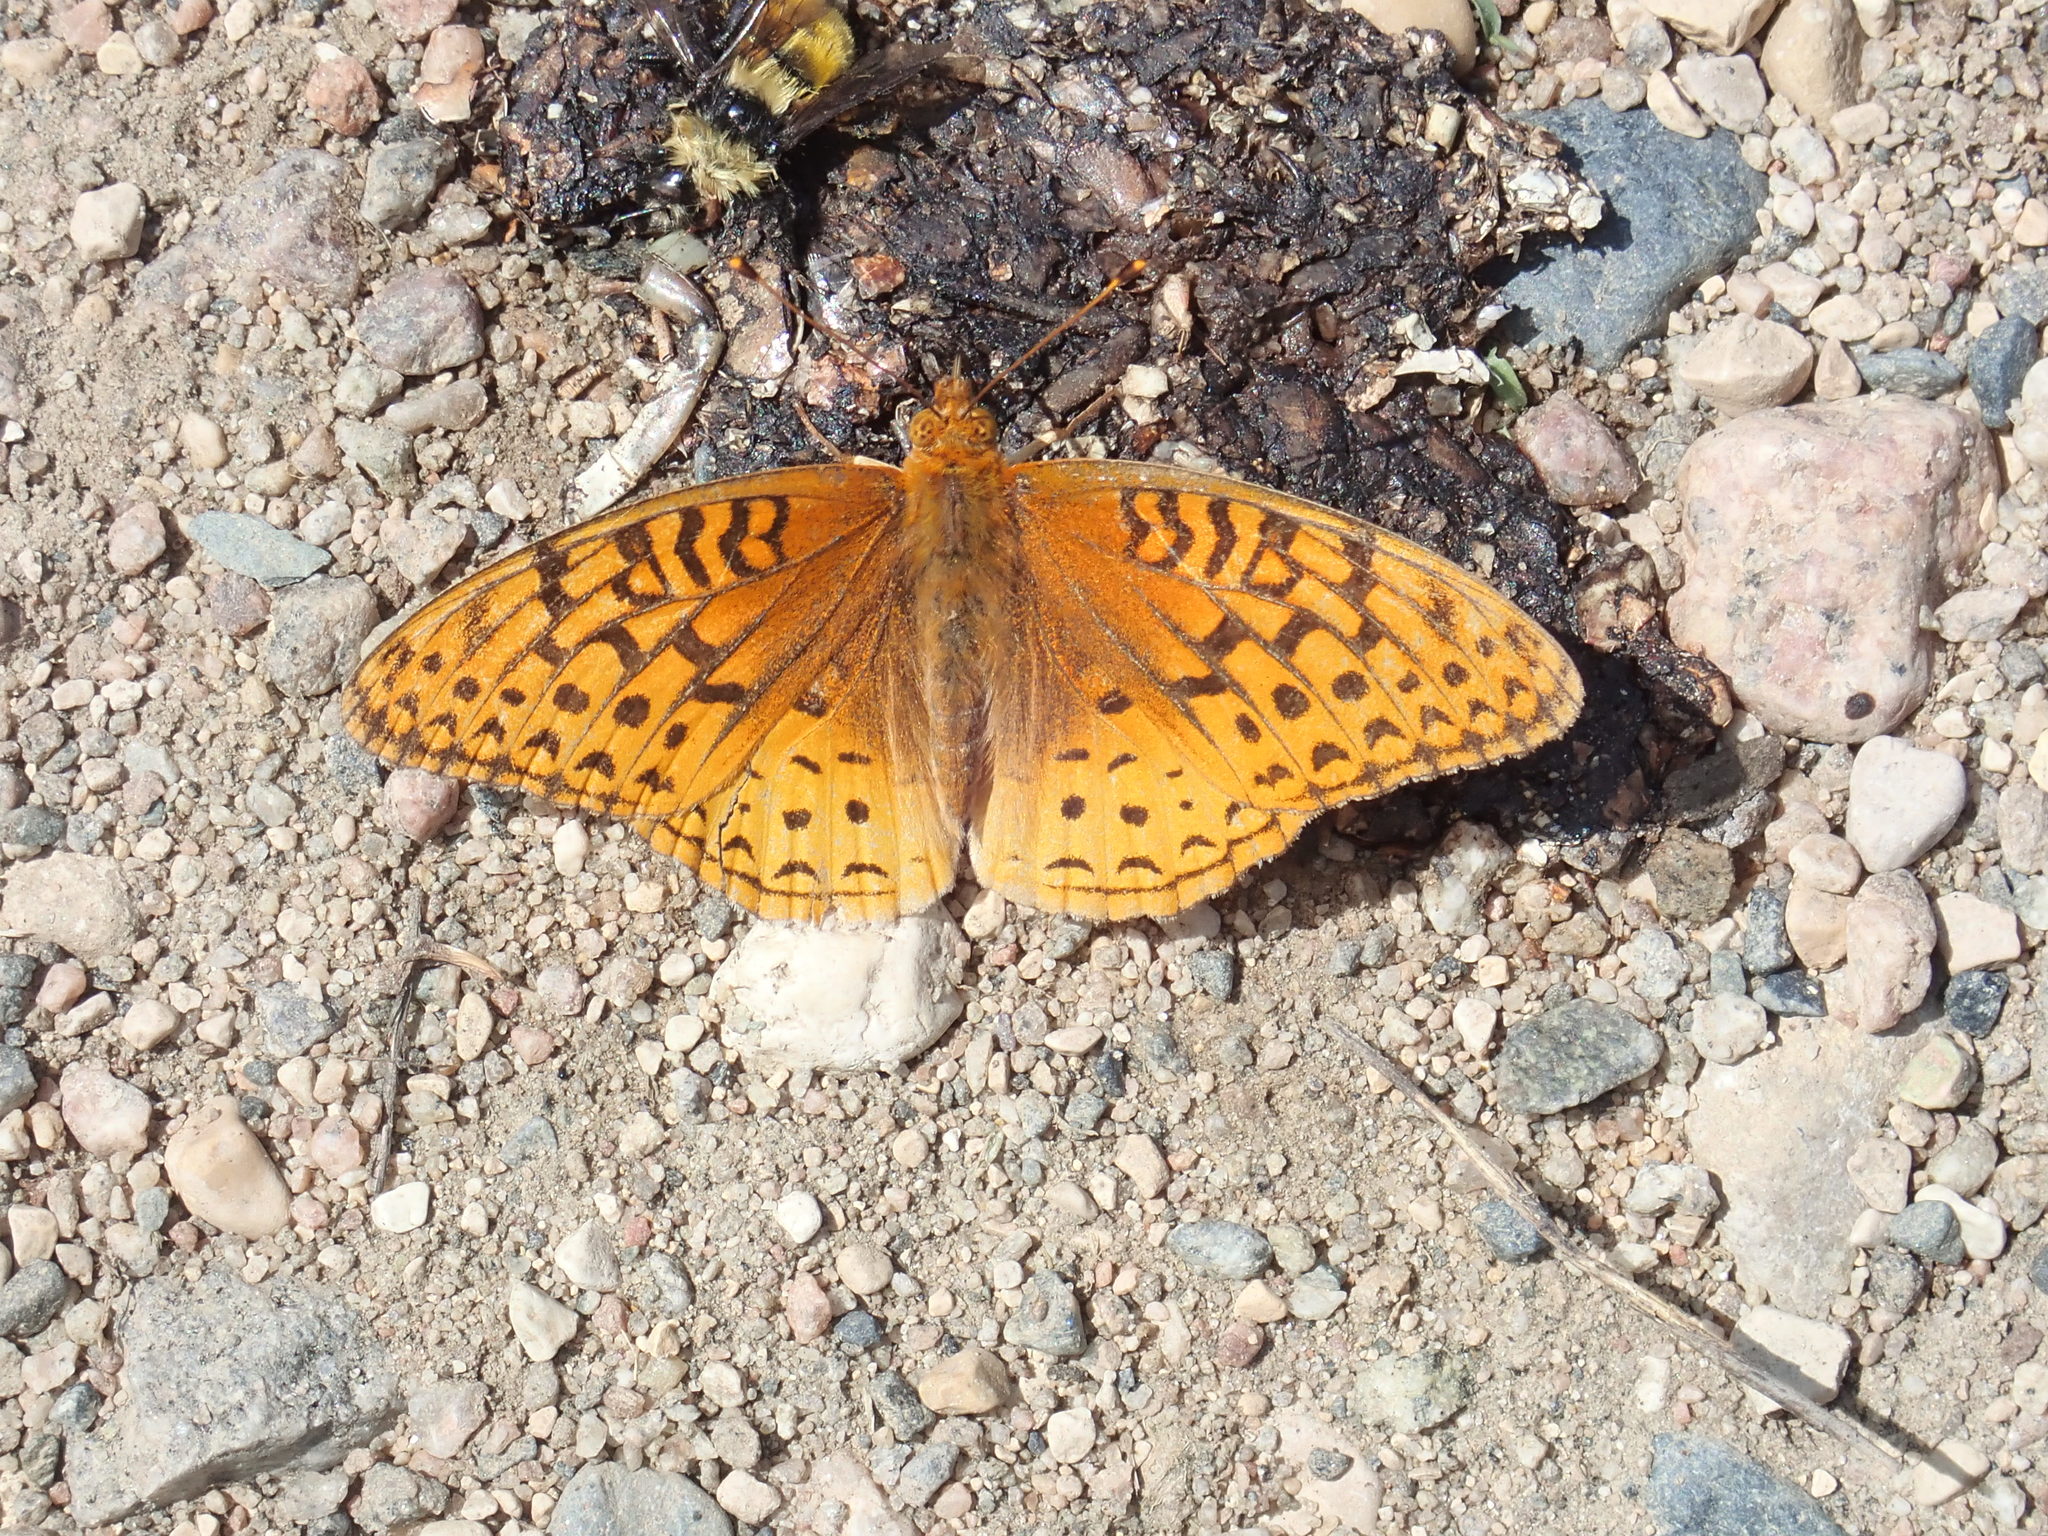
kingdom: Animalia
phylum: Arthropoda
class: Insecta
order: Lepidoptera
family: Nymphalidae
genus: Speyeria
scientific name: Speyeria cybele
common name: Great spangled fritillary
